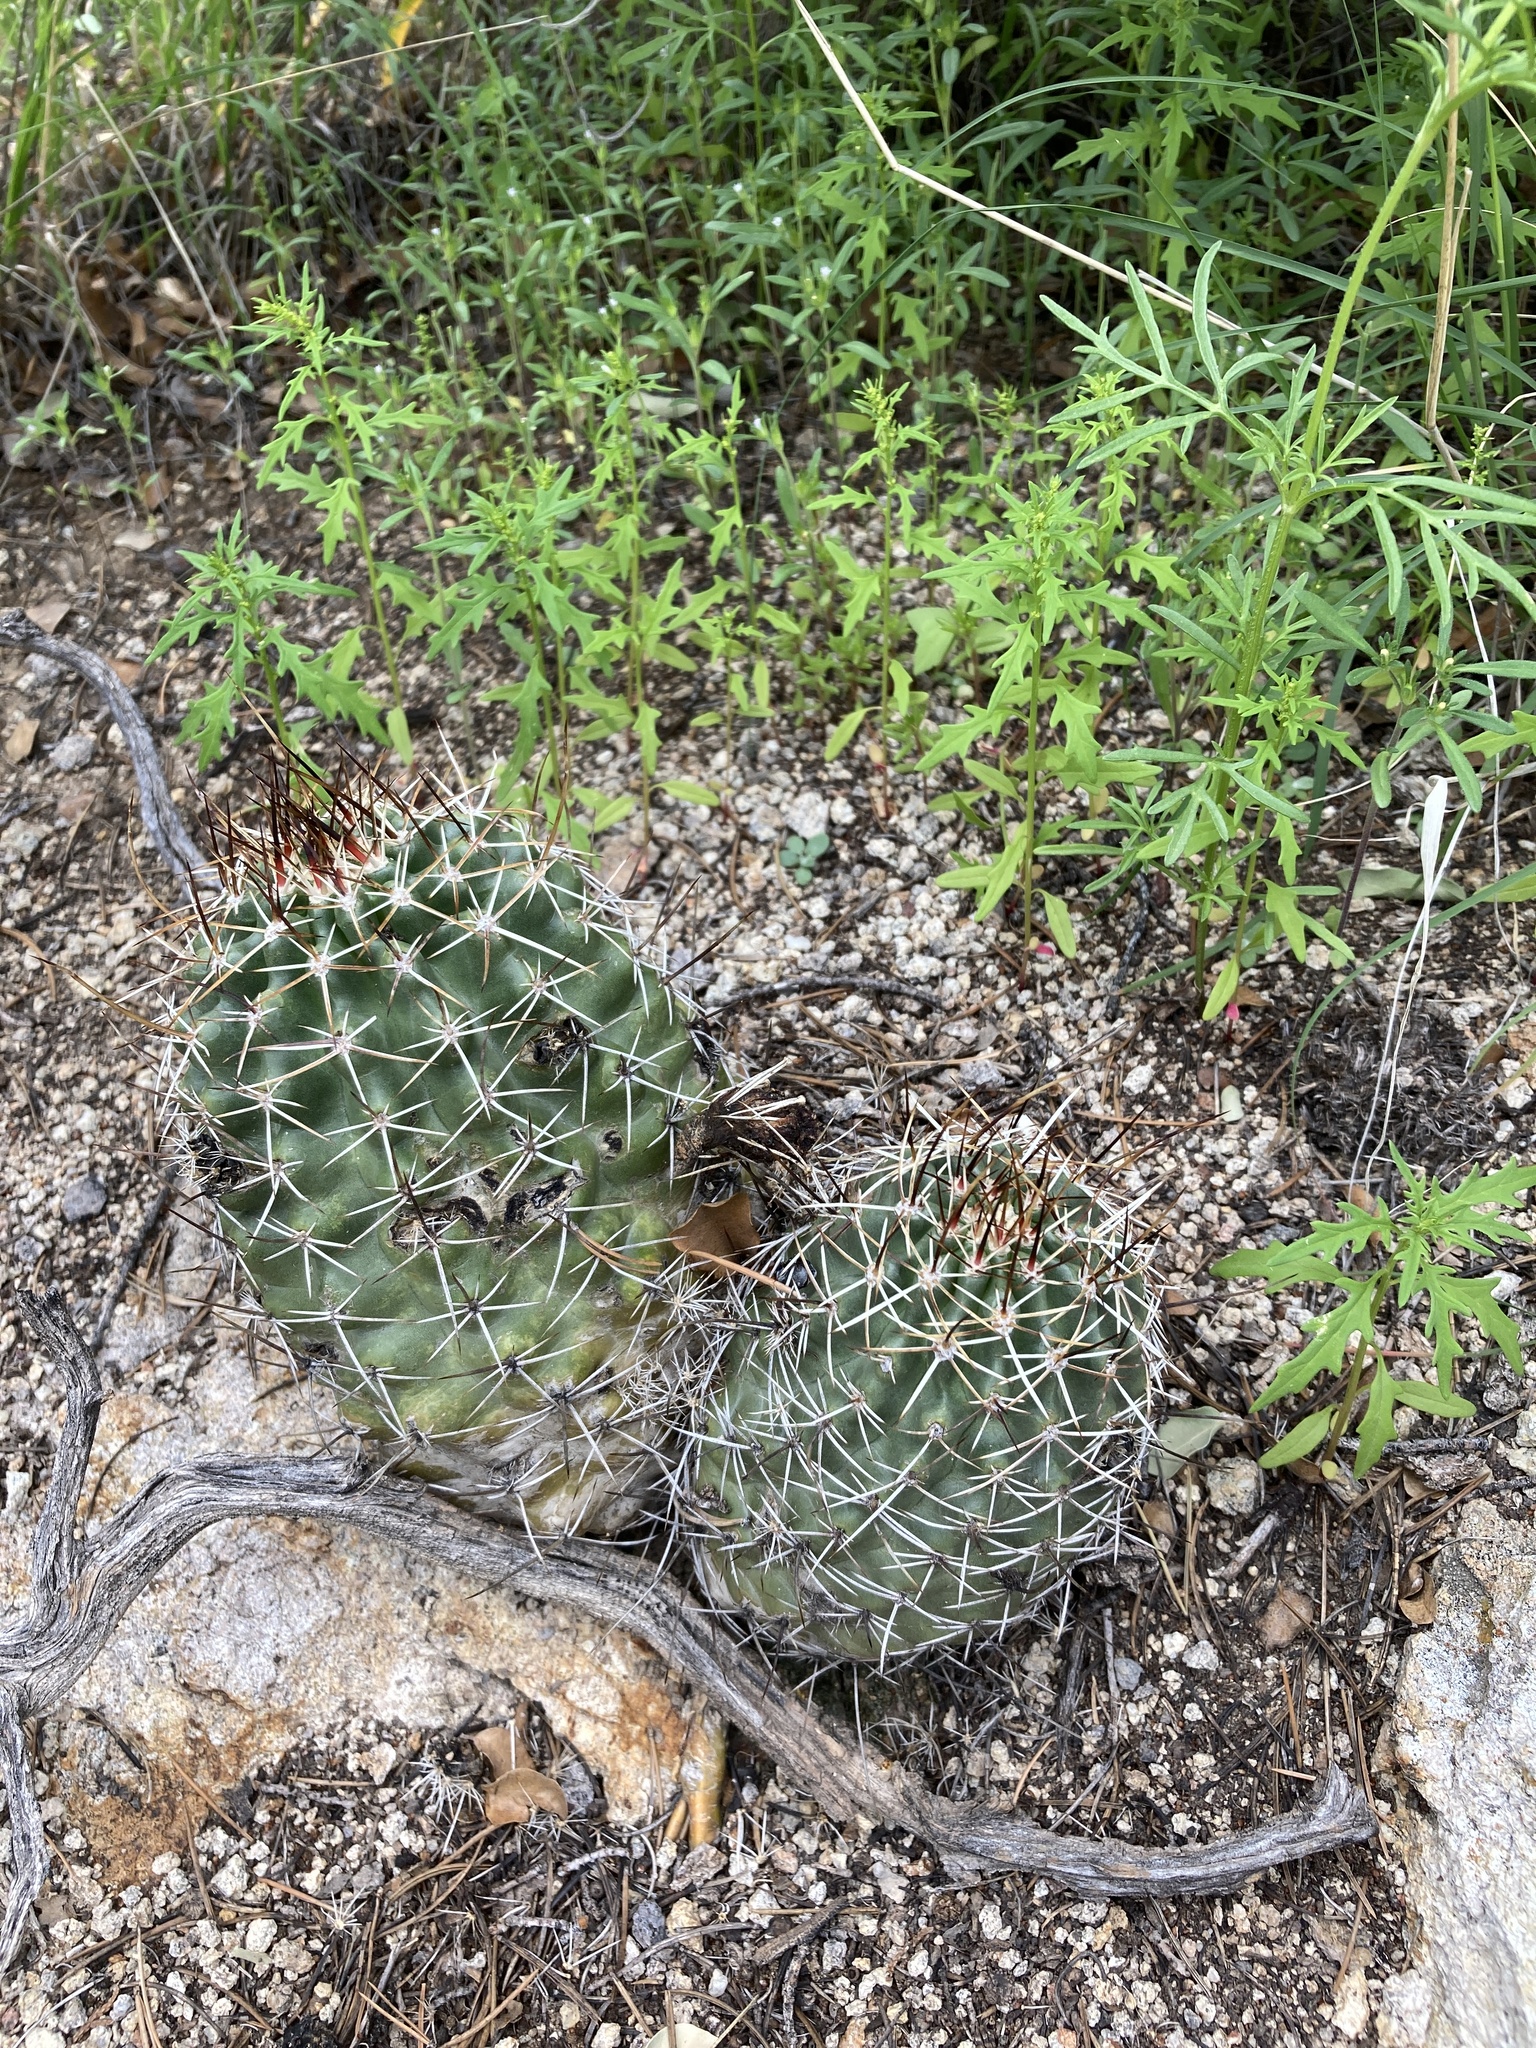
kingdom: Plantae
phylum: Tracheophyta
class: Magnoliopsida
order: Caryophyllales
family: Cactaceae
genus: Echinocereus
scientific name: Echinocereus fendleri
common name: Fendler's hedgehog cactus
